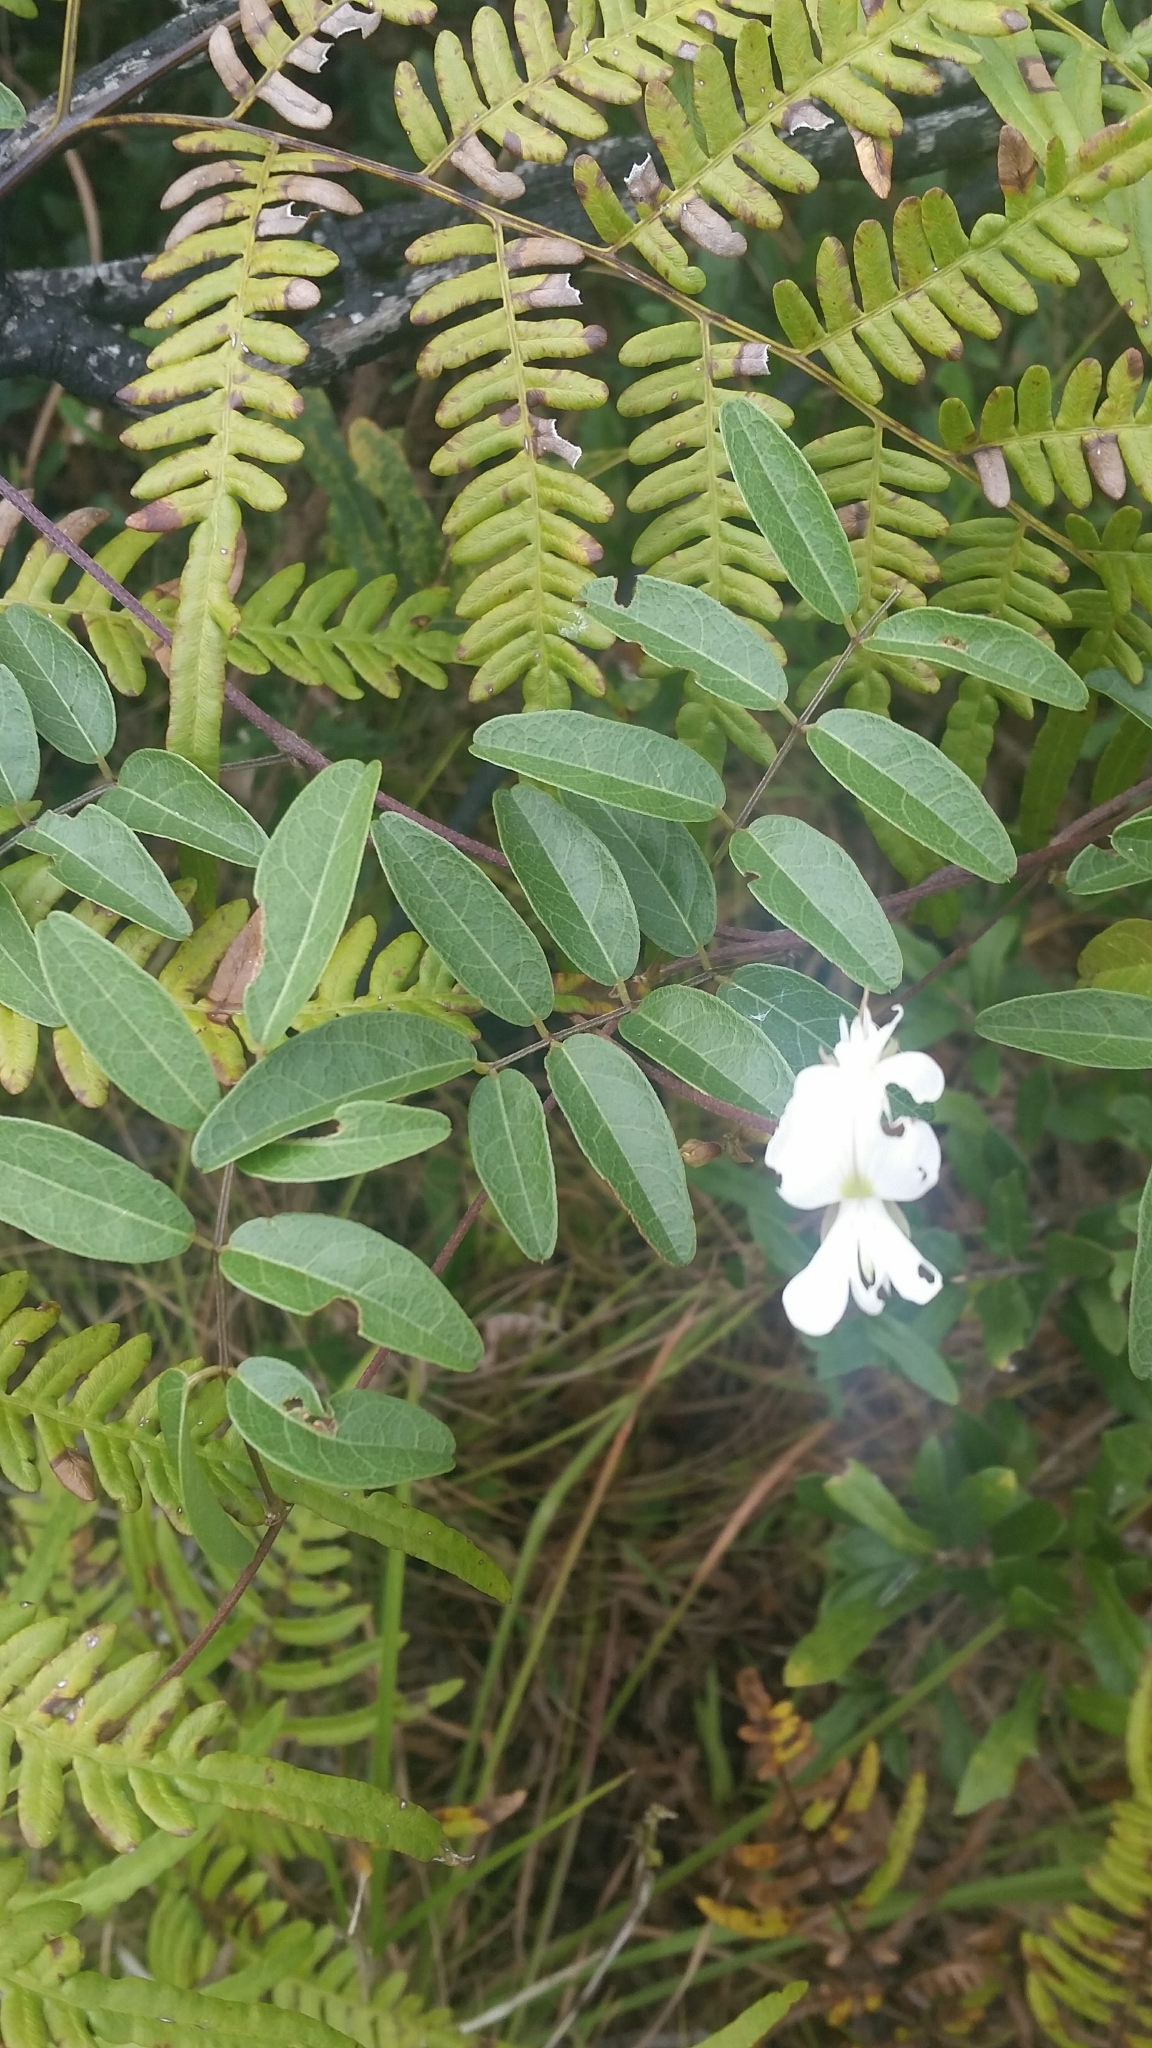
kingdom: Plantae
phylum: Tracheophyta
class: Magnoliopsida
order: Fabales
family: Fabaceae
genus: Galactia
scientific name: Galactia elliottii
